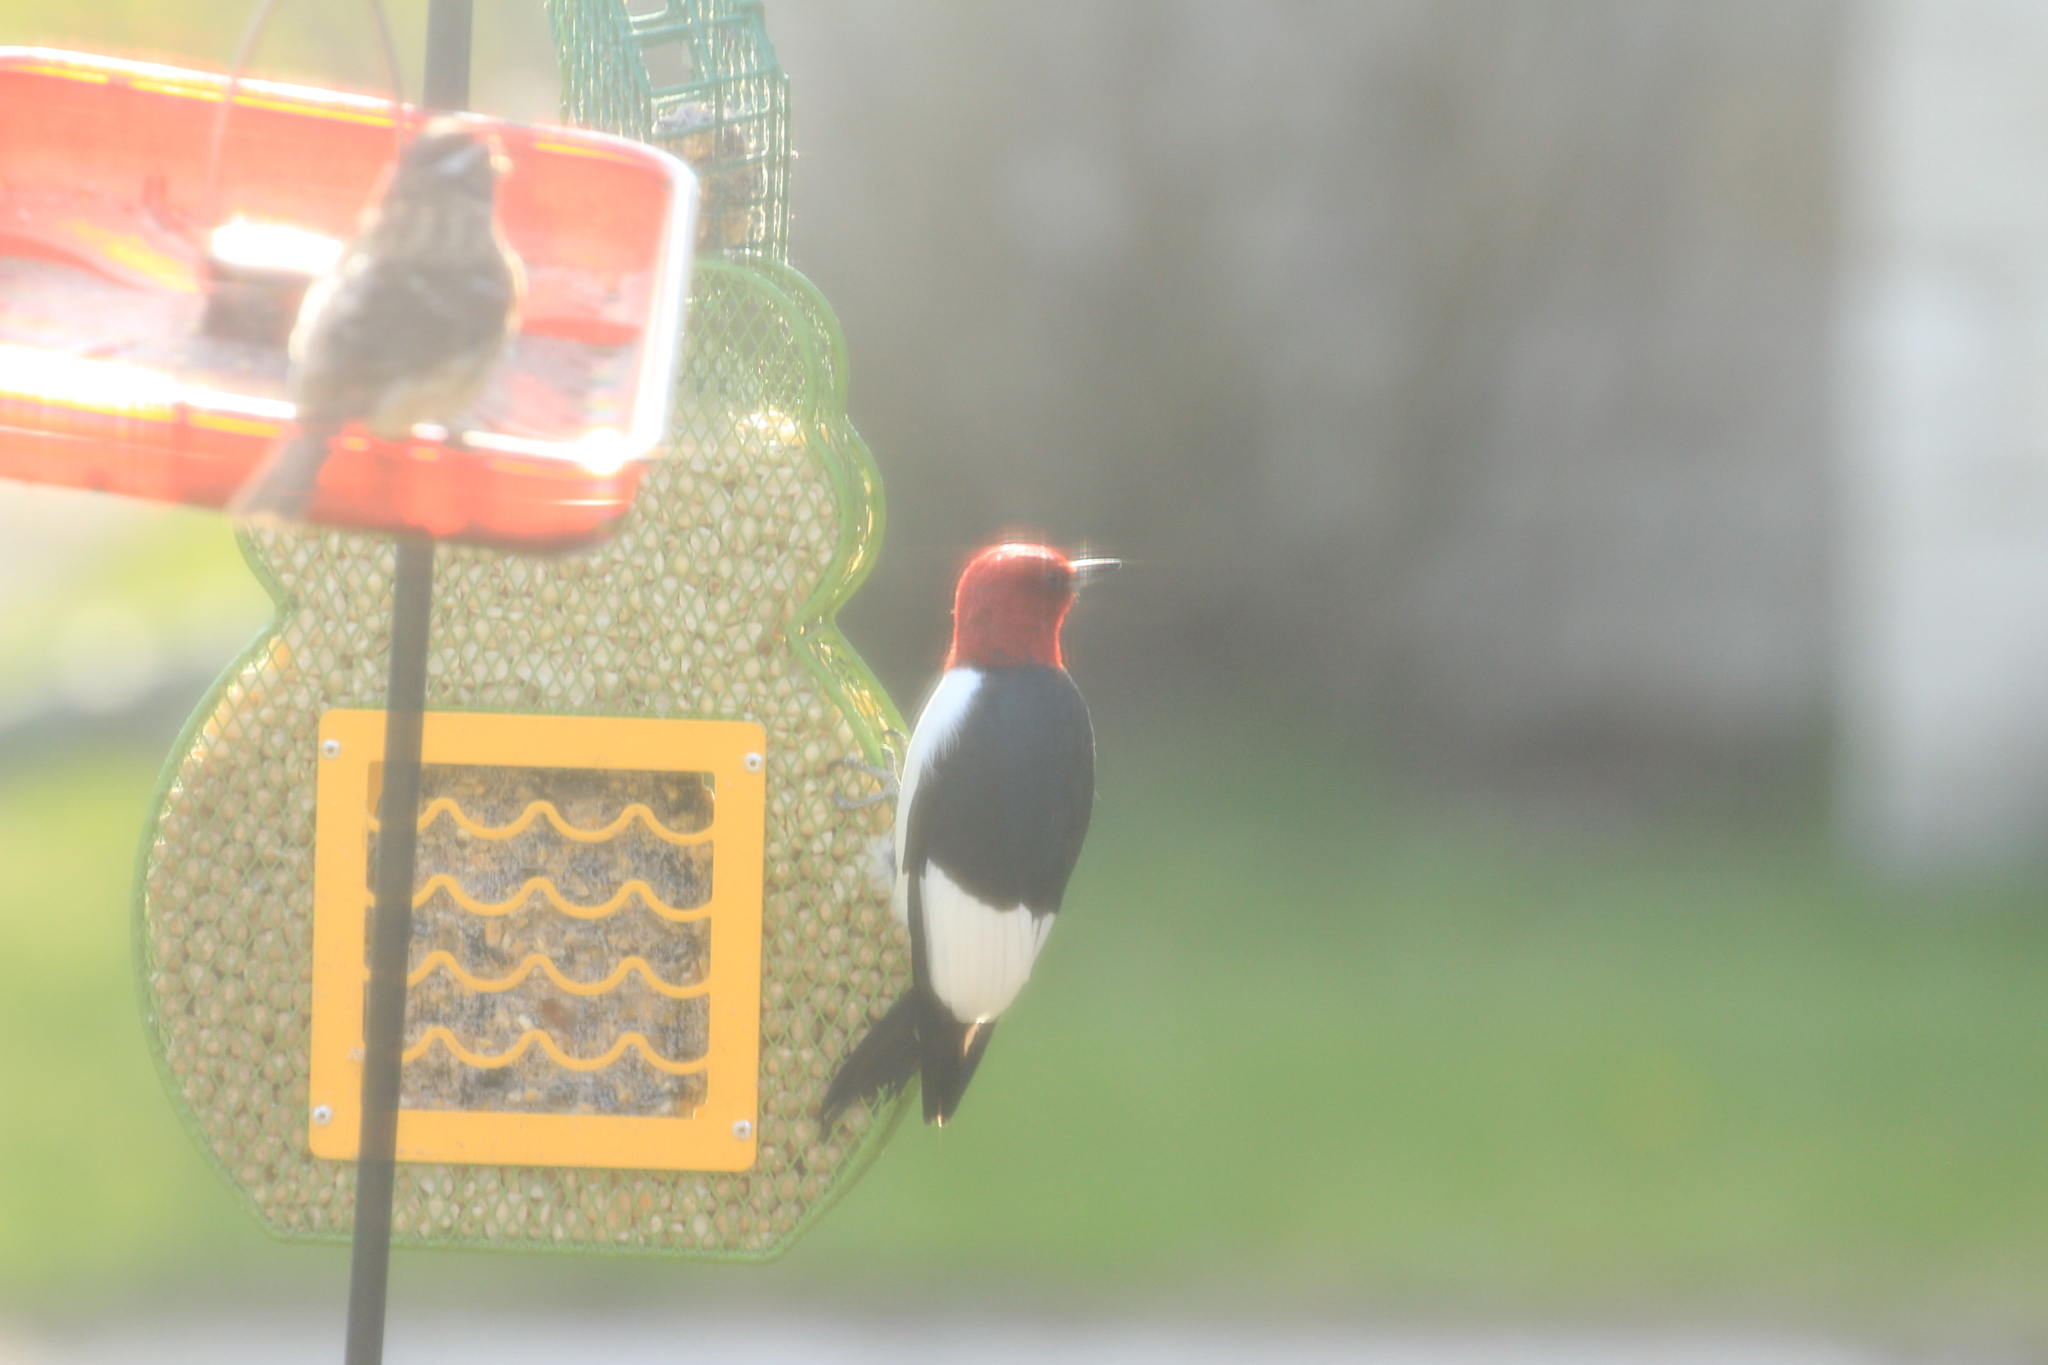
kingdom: Animalia
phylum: Chordata
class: Aves
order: Piciformes
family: Picidae
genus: Melanerpes
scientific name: Melanerpes erythrocephalus
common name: Red-headed woodpecker
